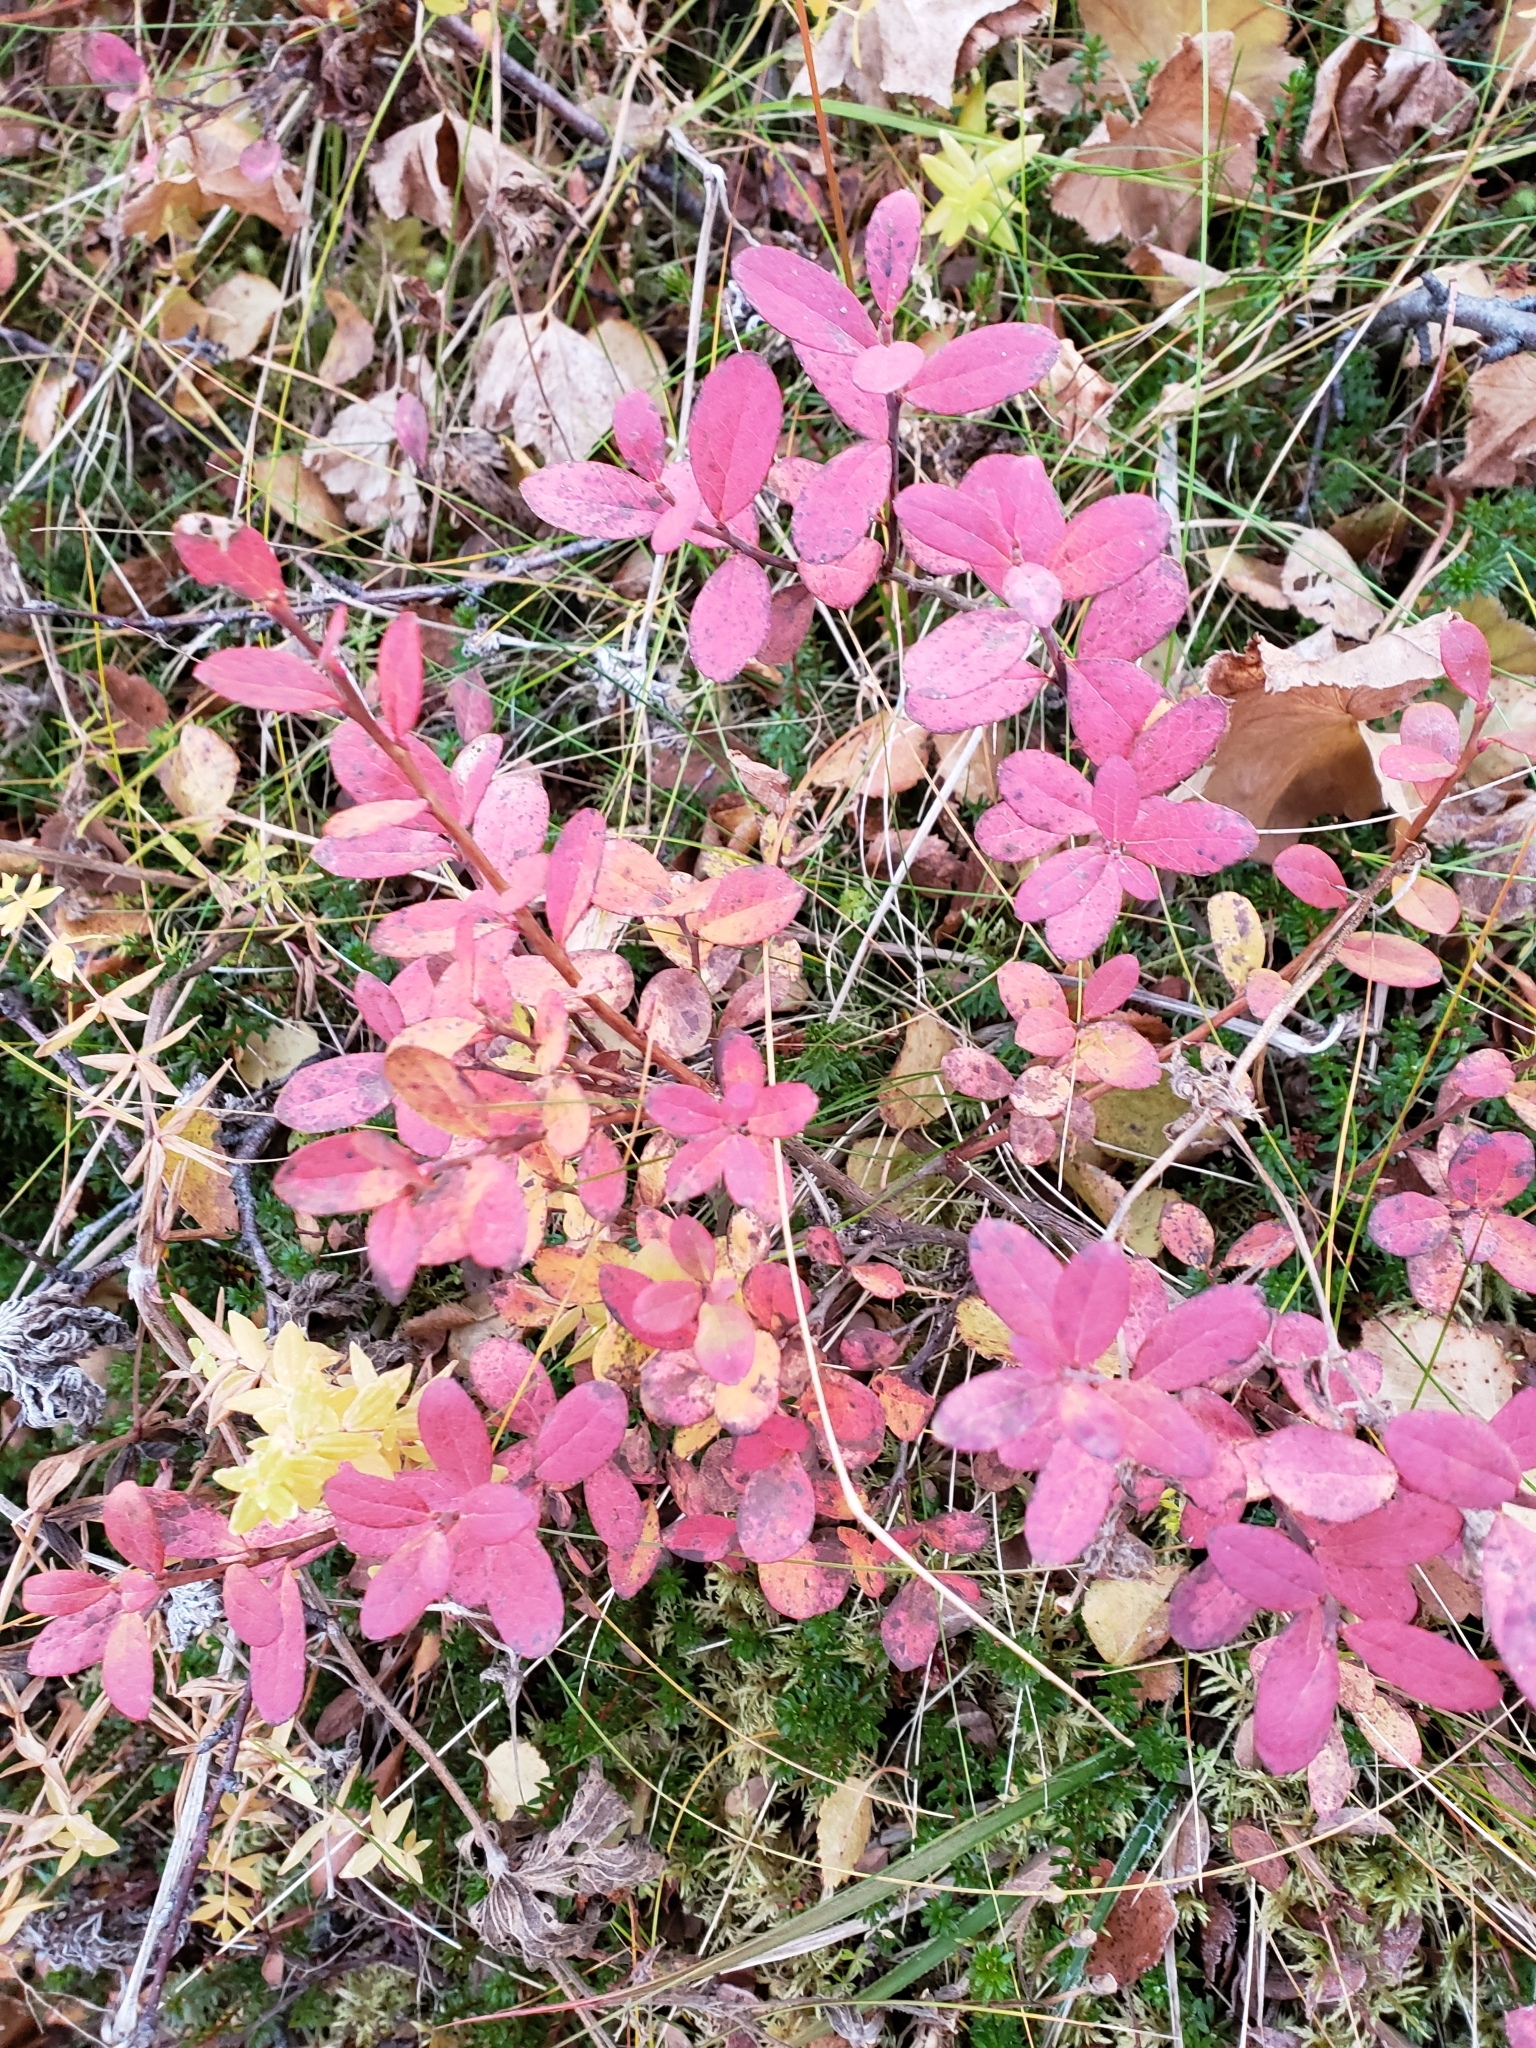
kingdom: Plantae
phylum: Tracheophyta
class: Magnoliopsida
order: Ericales
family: Ericaceae
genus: Vaccinium
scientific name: Vaccinium uliginosum
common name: Bog bilberry
